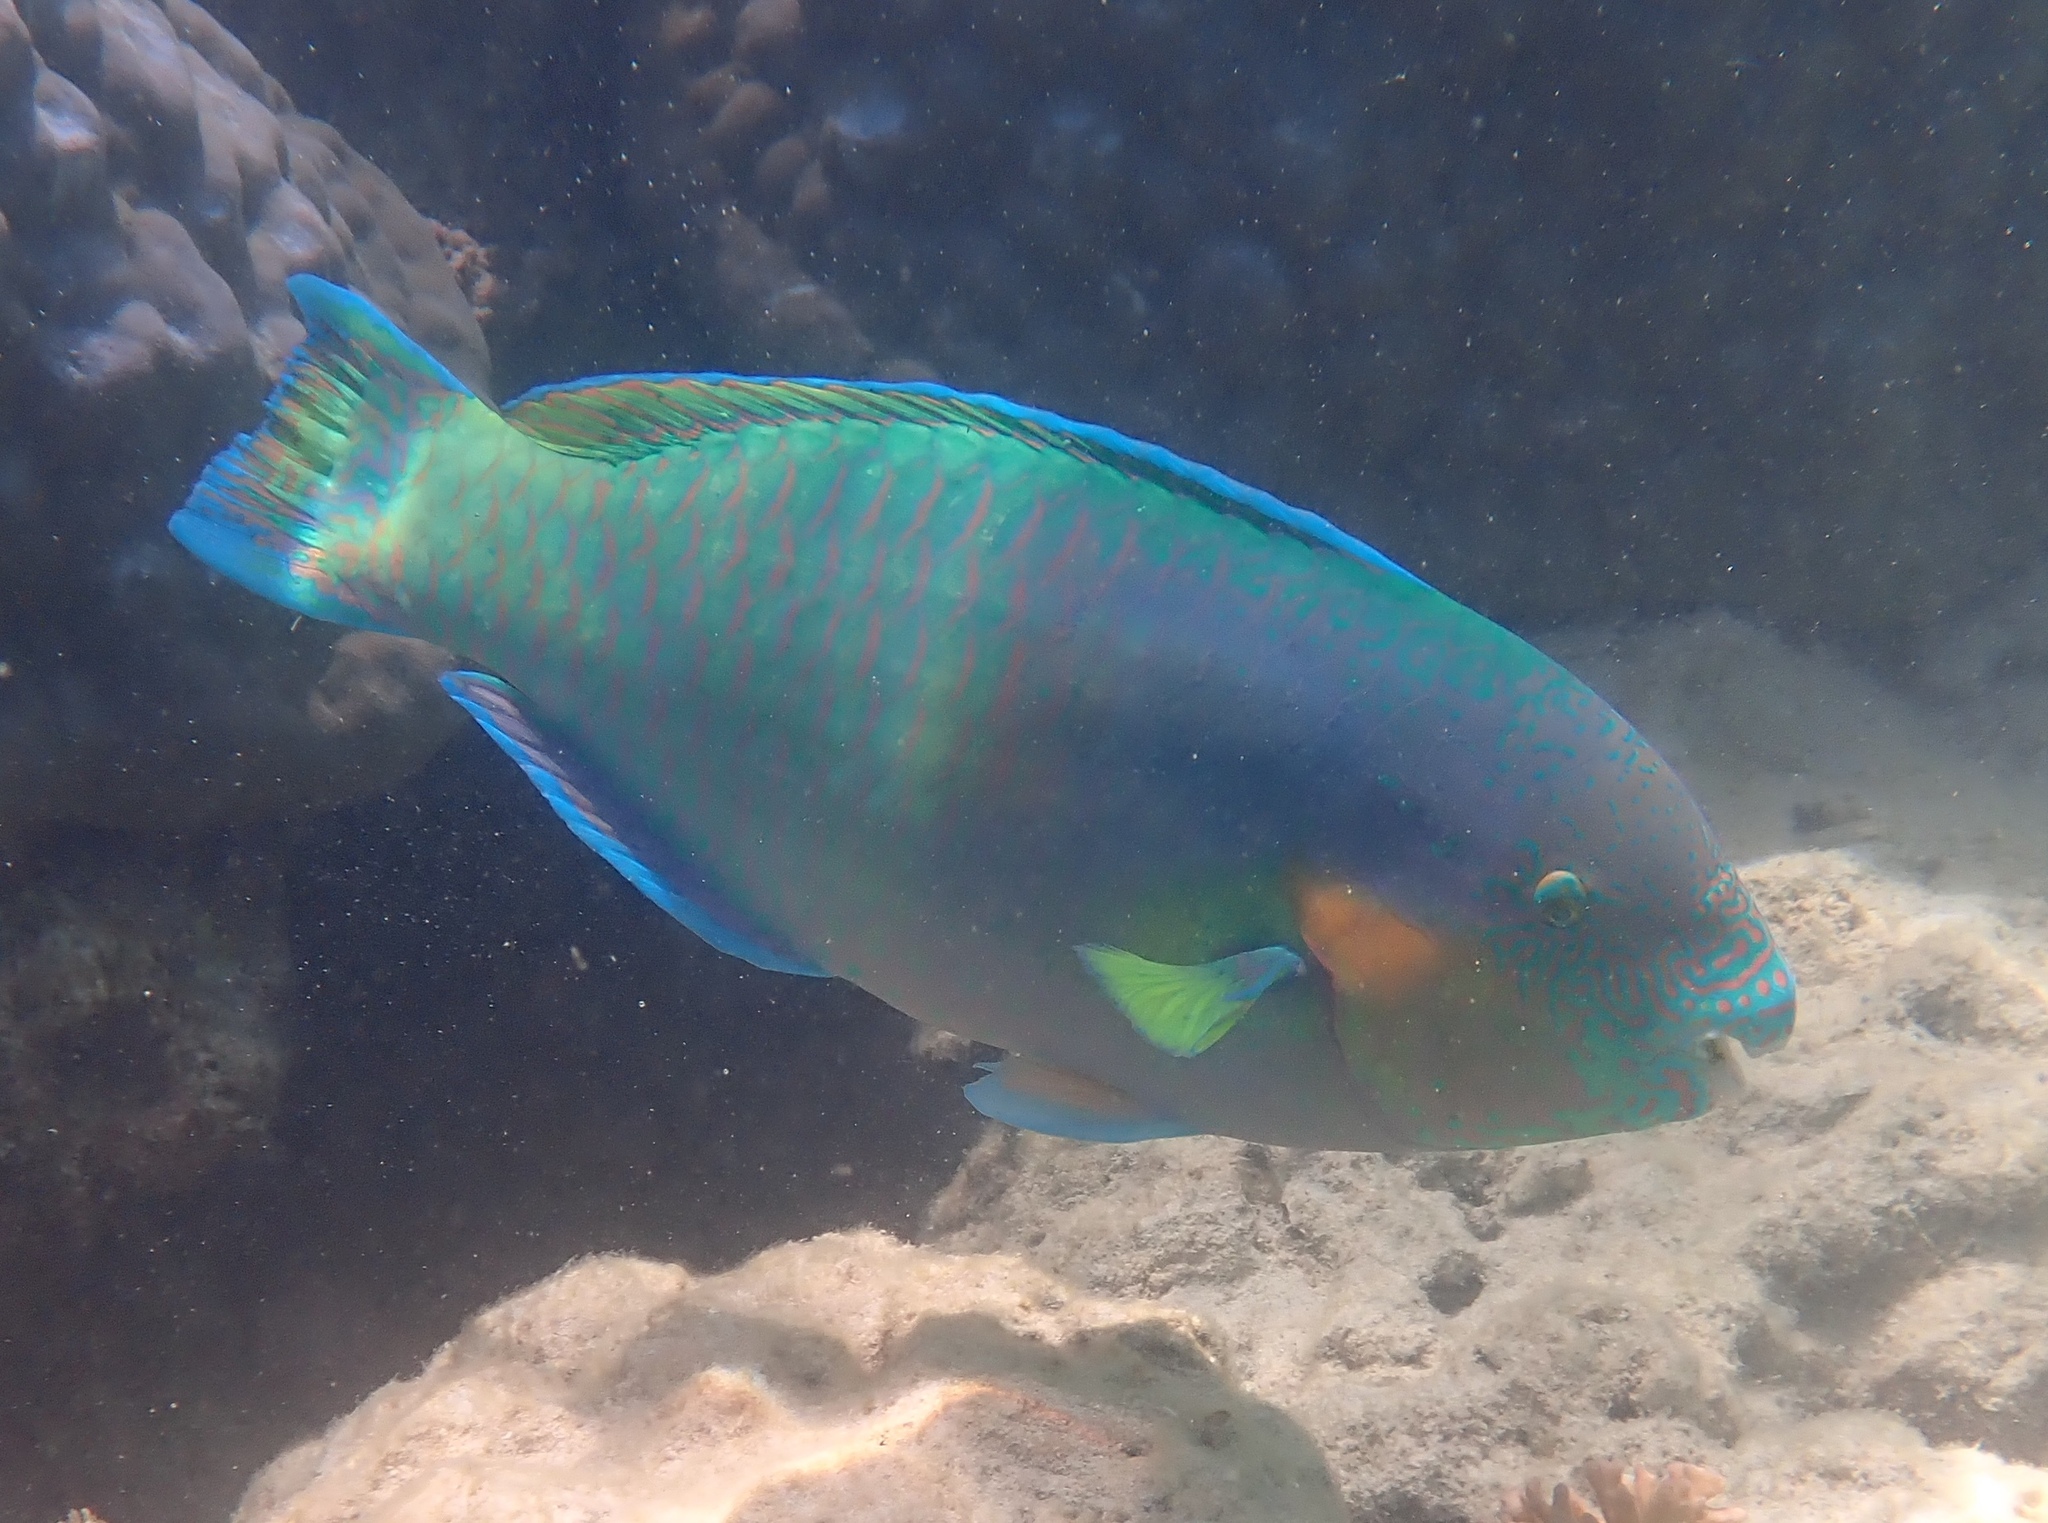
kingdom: Animalia
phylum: Chordata
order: Perciformes
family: Scaridae
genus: Scarus
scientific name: Scarus rivulatus
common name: Surf parrotfish
